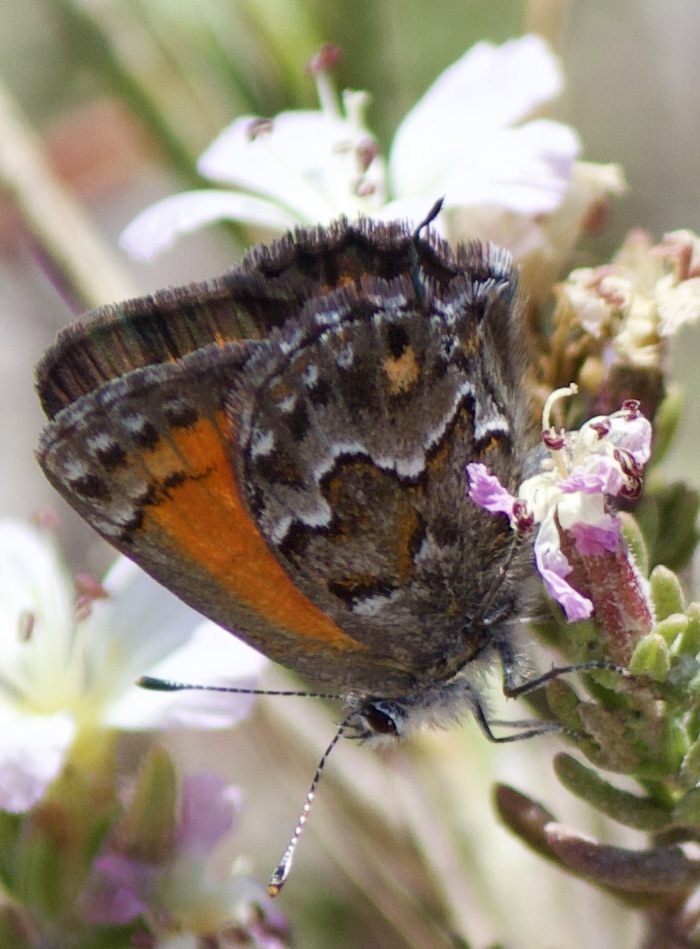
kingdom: Animalia
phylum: Arthropoda
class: Insecta
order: Lepidoptera
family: Lycaenidae
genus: Strymon
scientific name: Strymon
